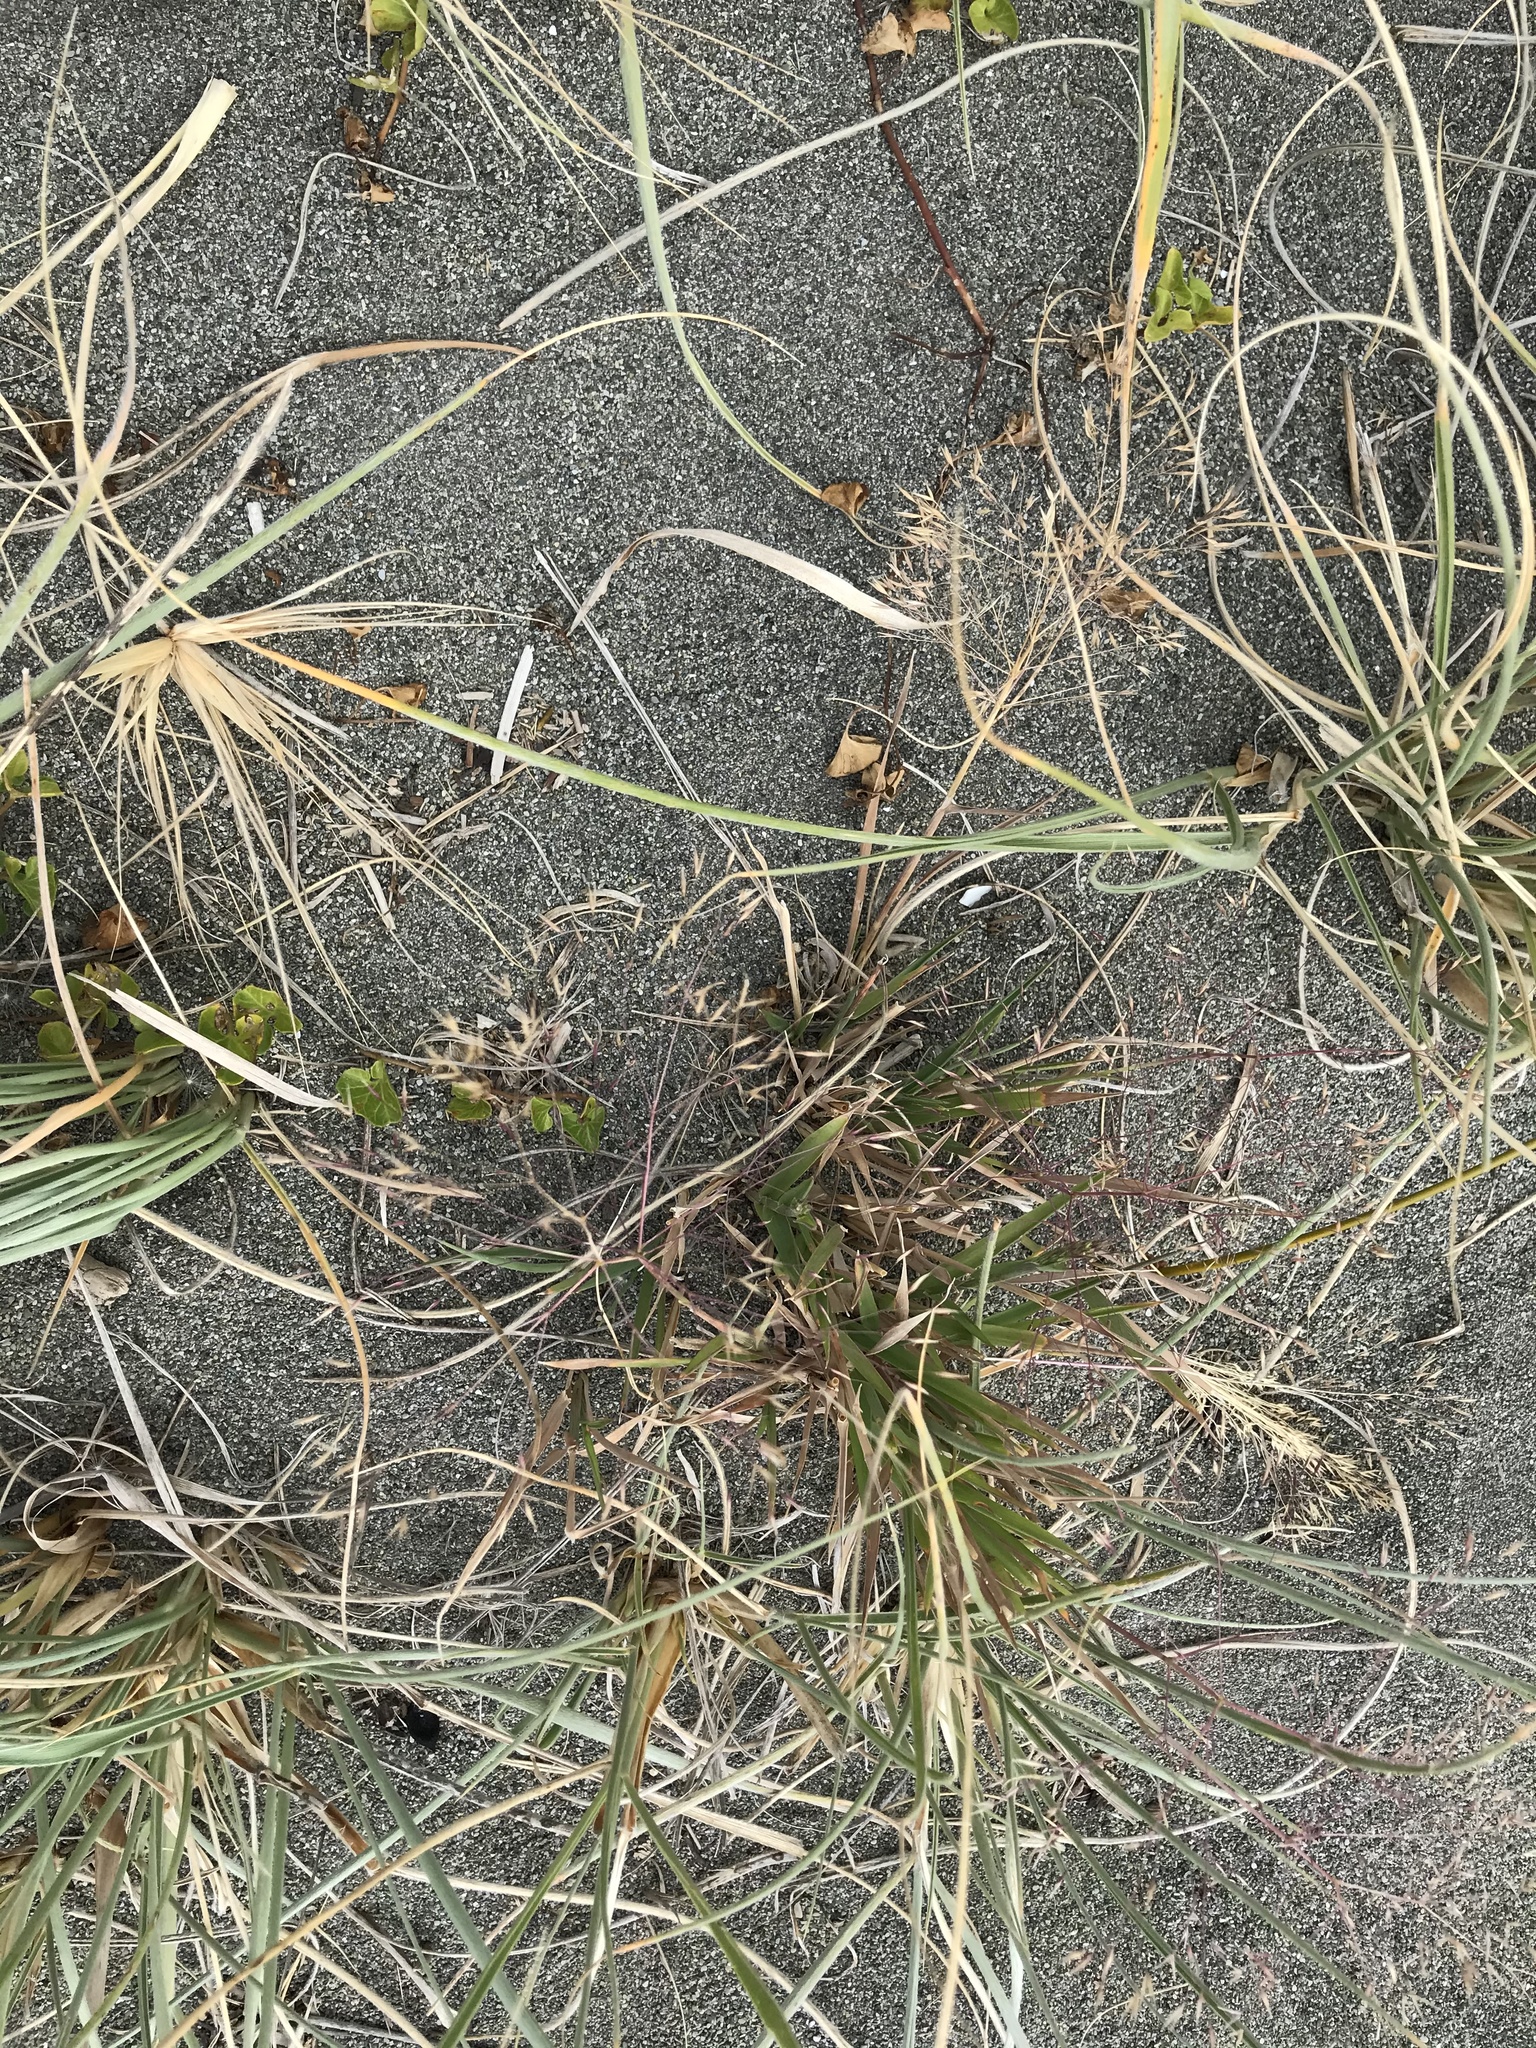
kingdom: Plantae
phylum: Tracheophyta
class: Liliopsida
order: Poales
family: Poaceae
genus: Lachnagrostis
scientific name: Lachnagrostis billardierei
